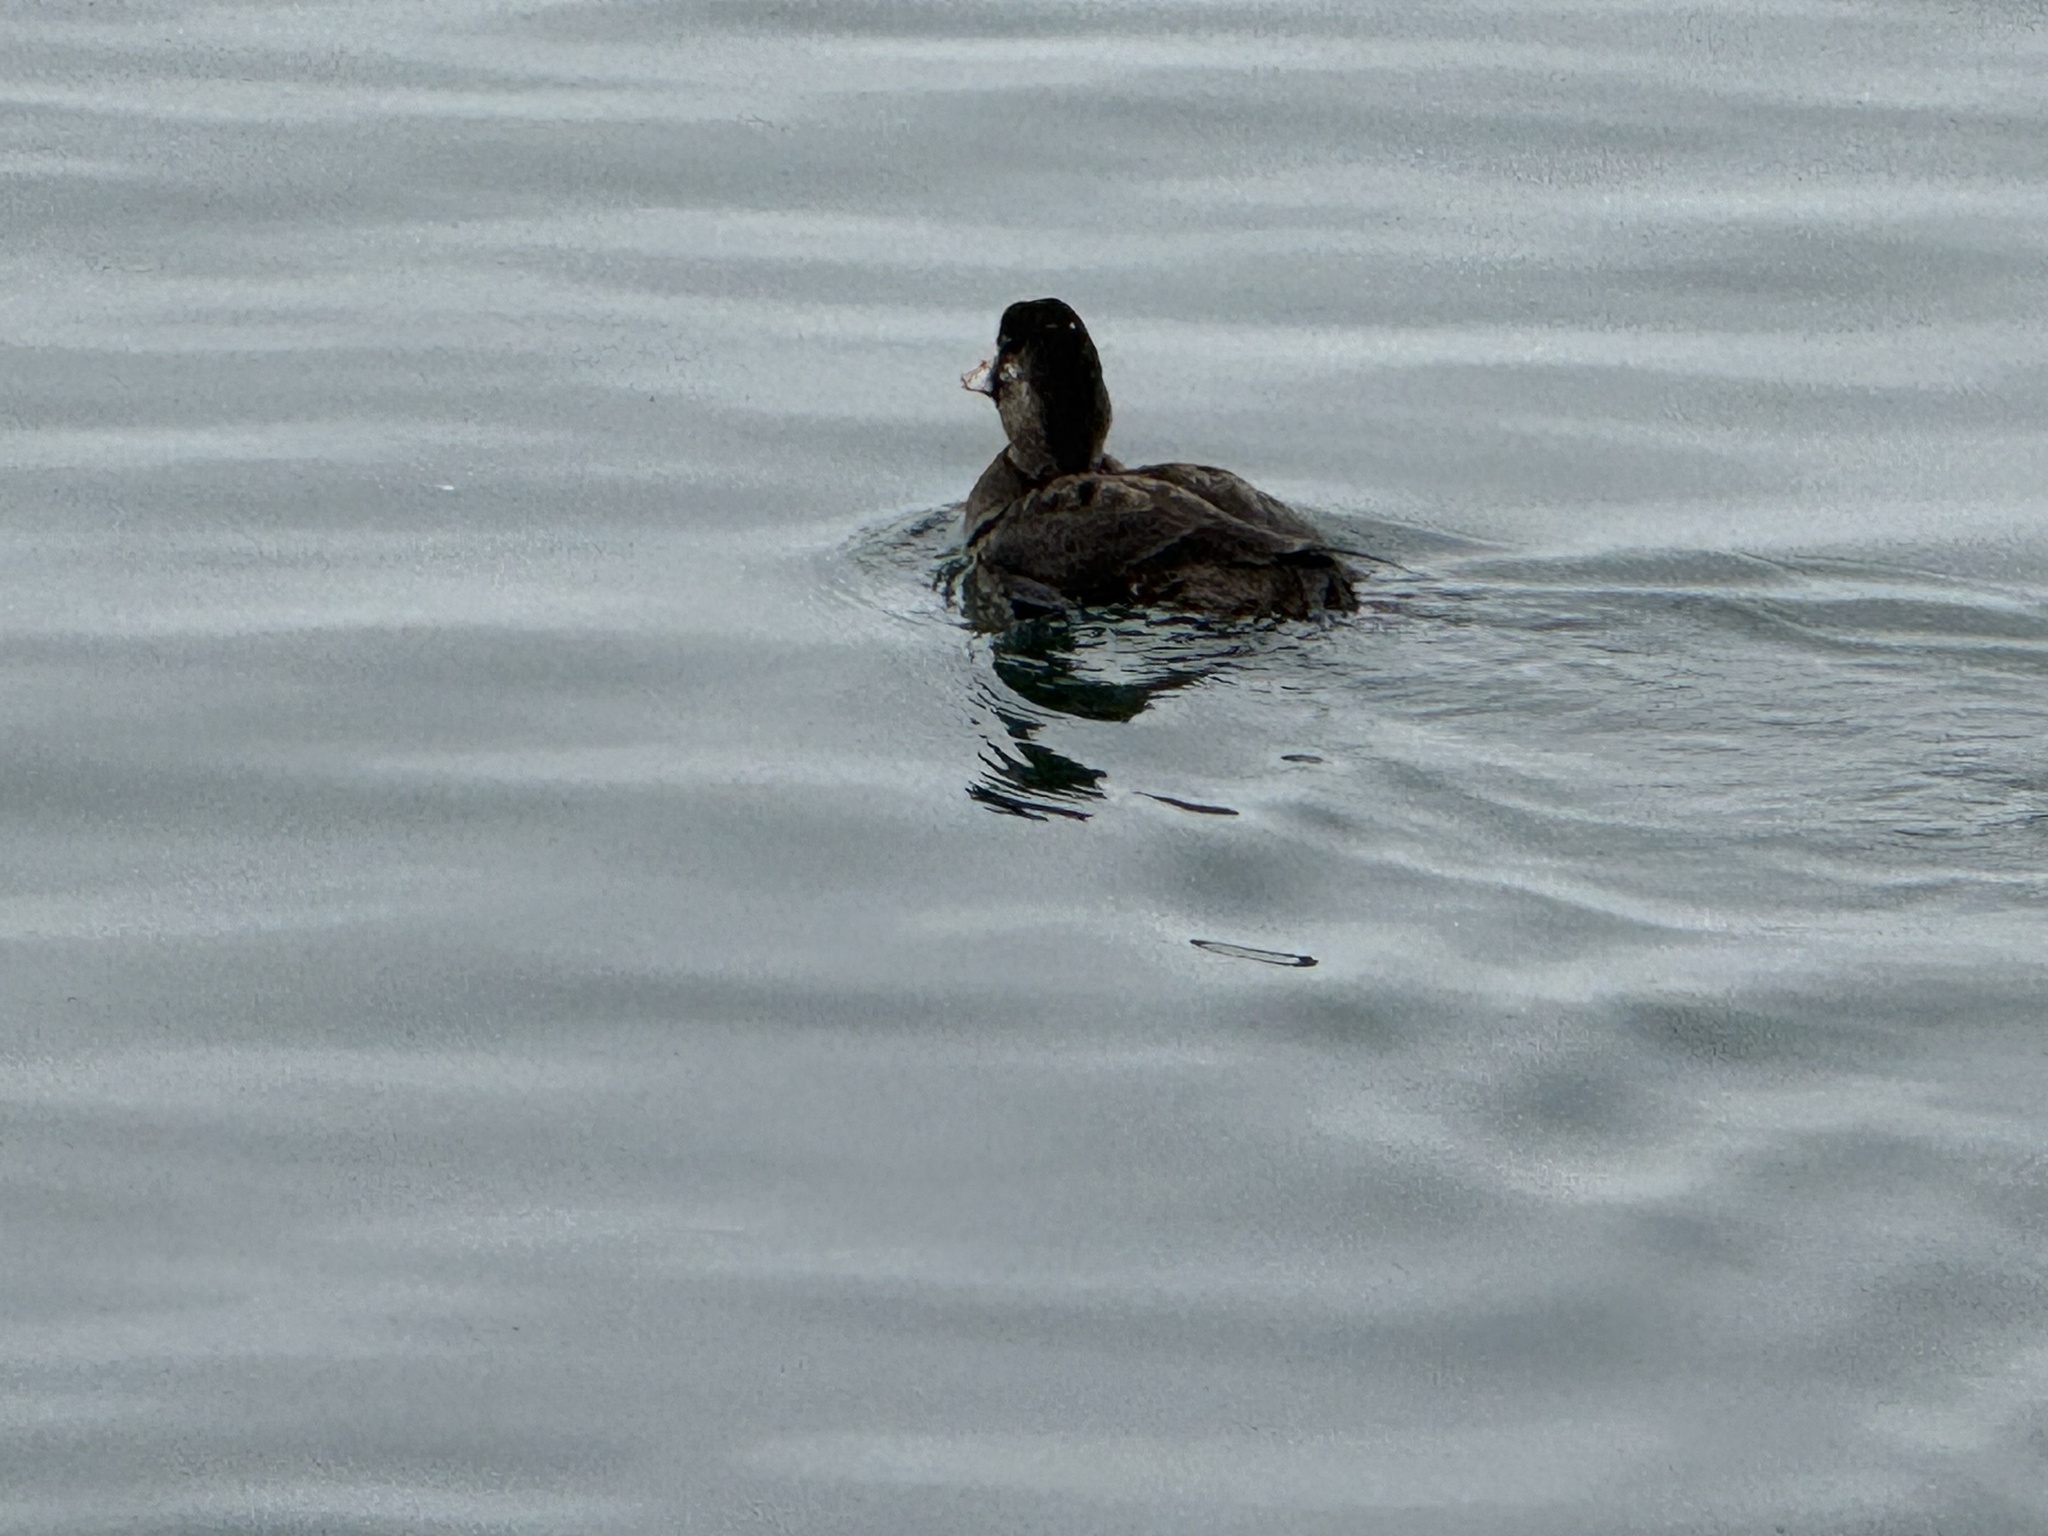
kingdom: Animalia
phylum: Chordata
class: Aves
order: Anseriformes
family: Anatidae
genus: Melanitta
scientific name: Melanitta perspicillata
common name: Surf scoter
